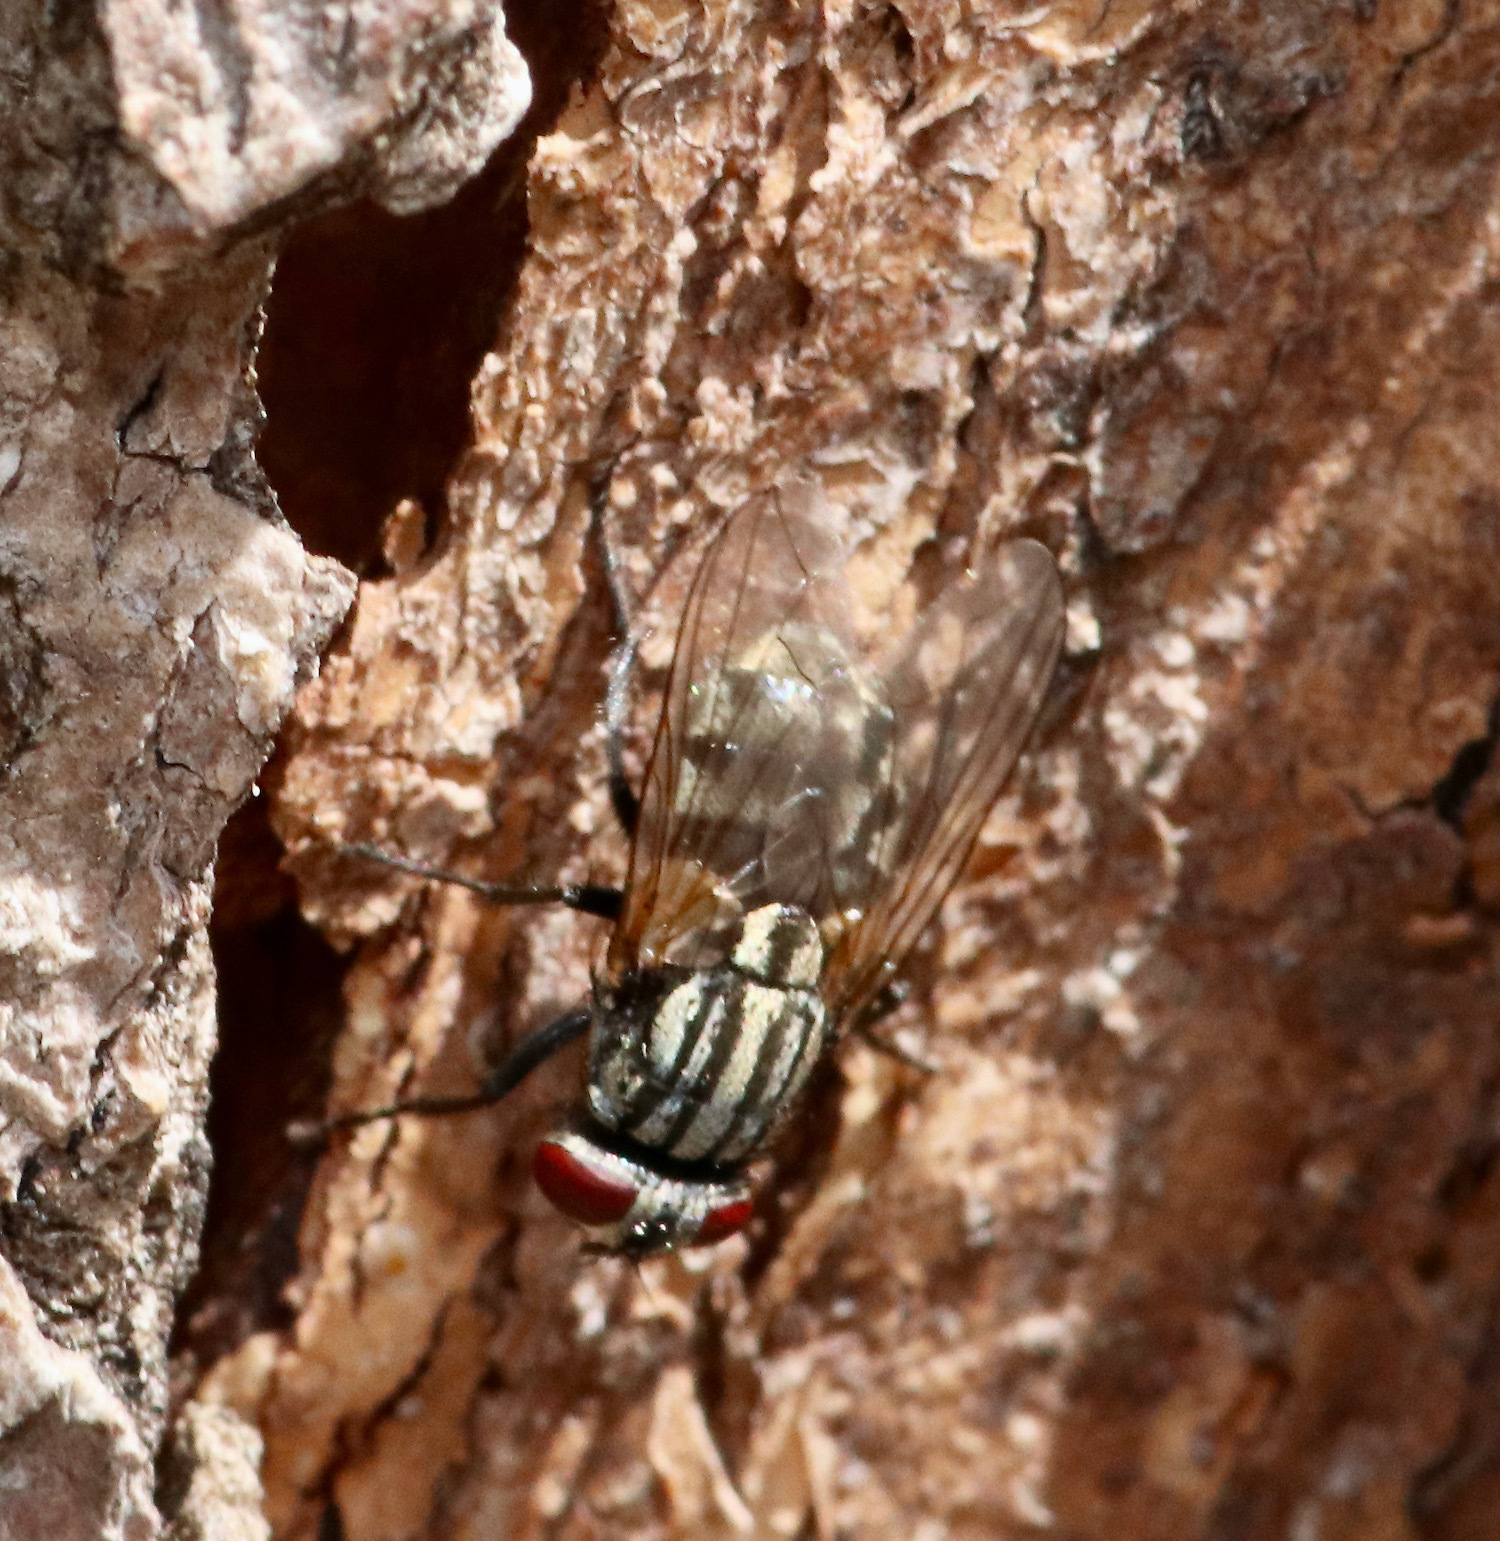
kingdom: Animalia
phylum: Arthropoda
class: Insecta
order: Diptera
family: Muscidae
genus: Musca
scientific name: Musca autumnalis
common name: Face fly
